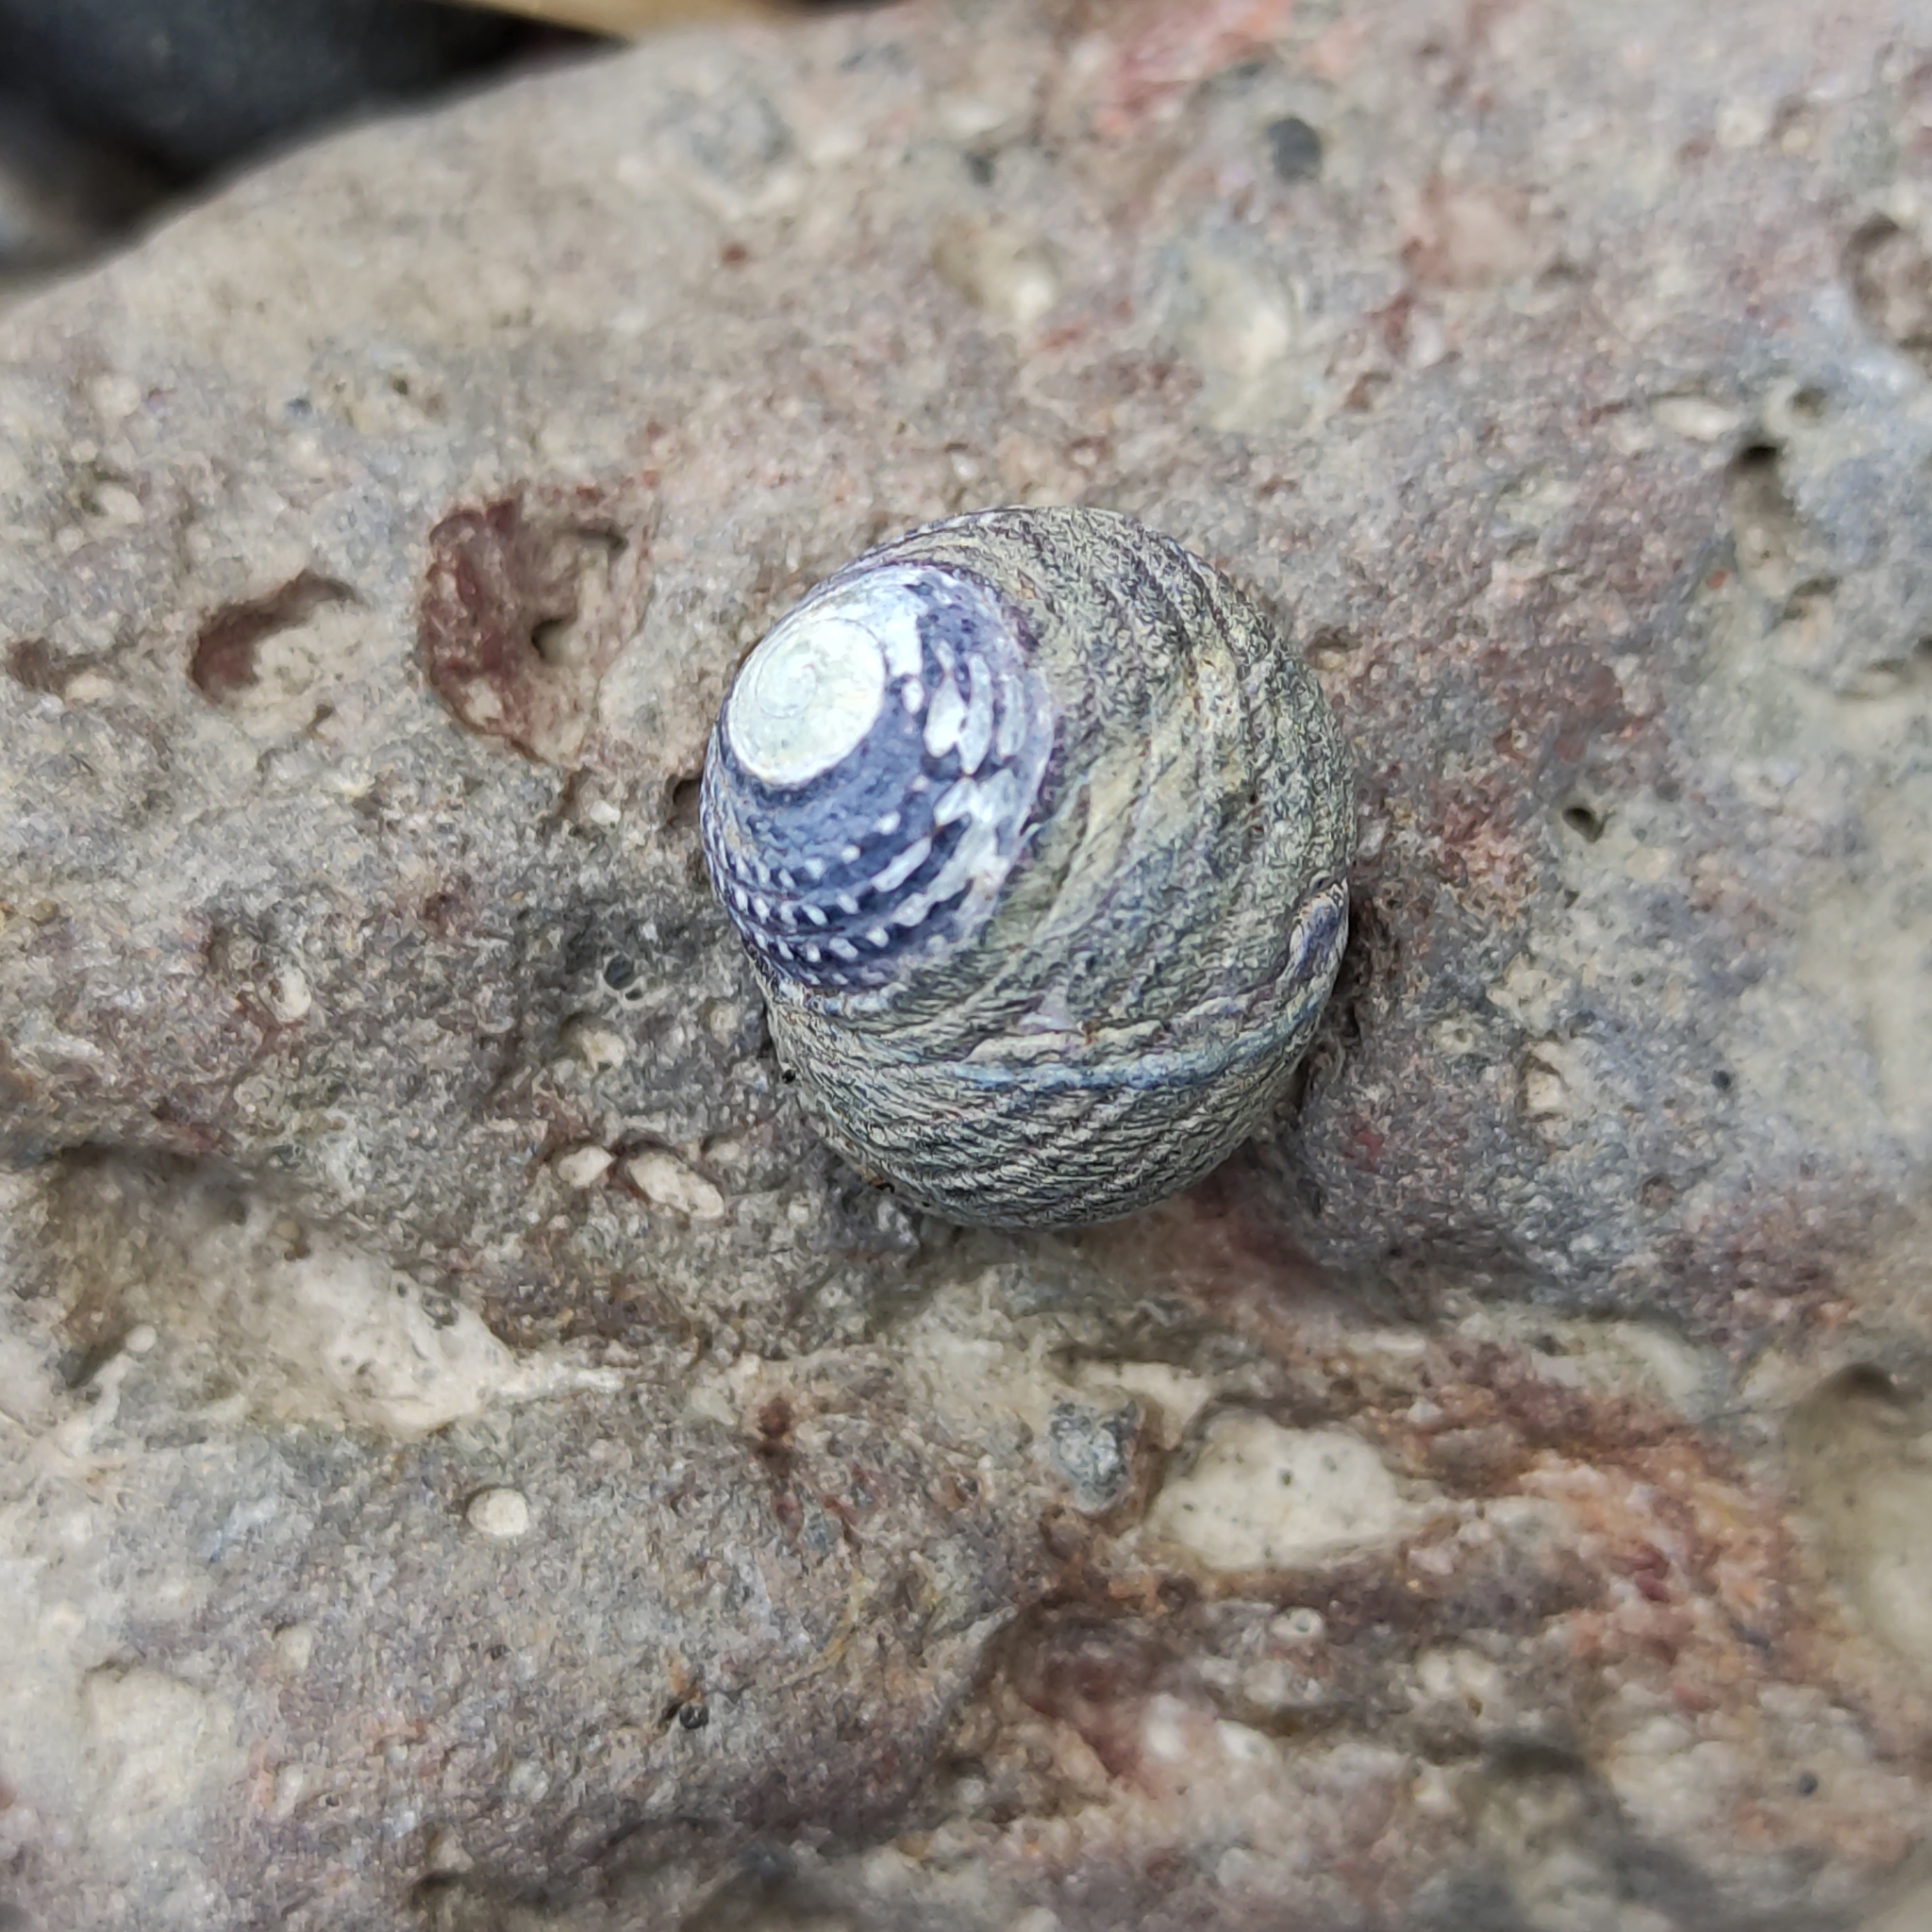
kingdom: Animalia
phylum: Mollusca
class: Gastropoda
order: Trochida
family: Trochidae
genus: Diloma
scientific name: Diloma aethiops
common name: Scorched monodont
